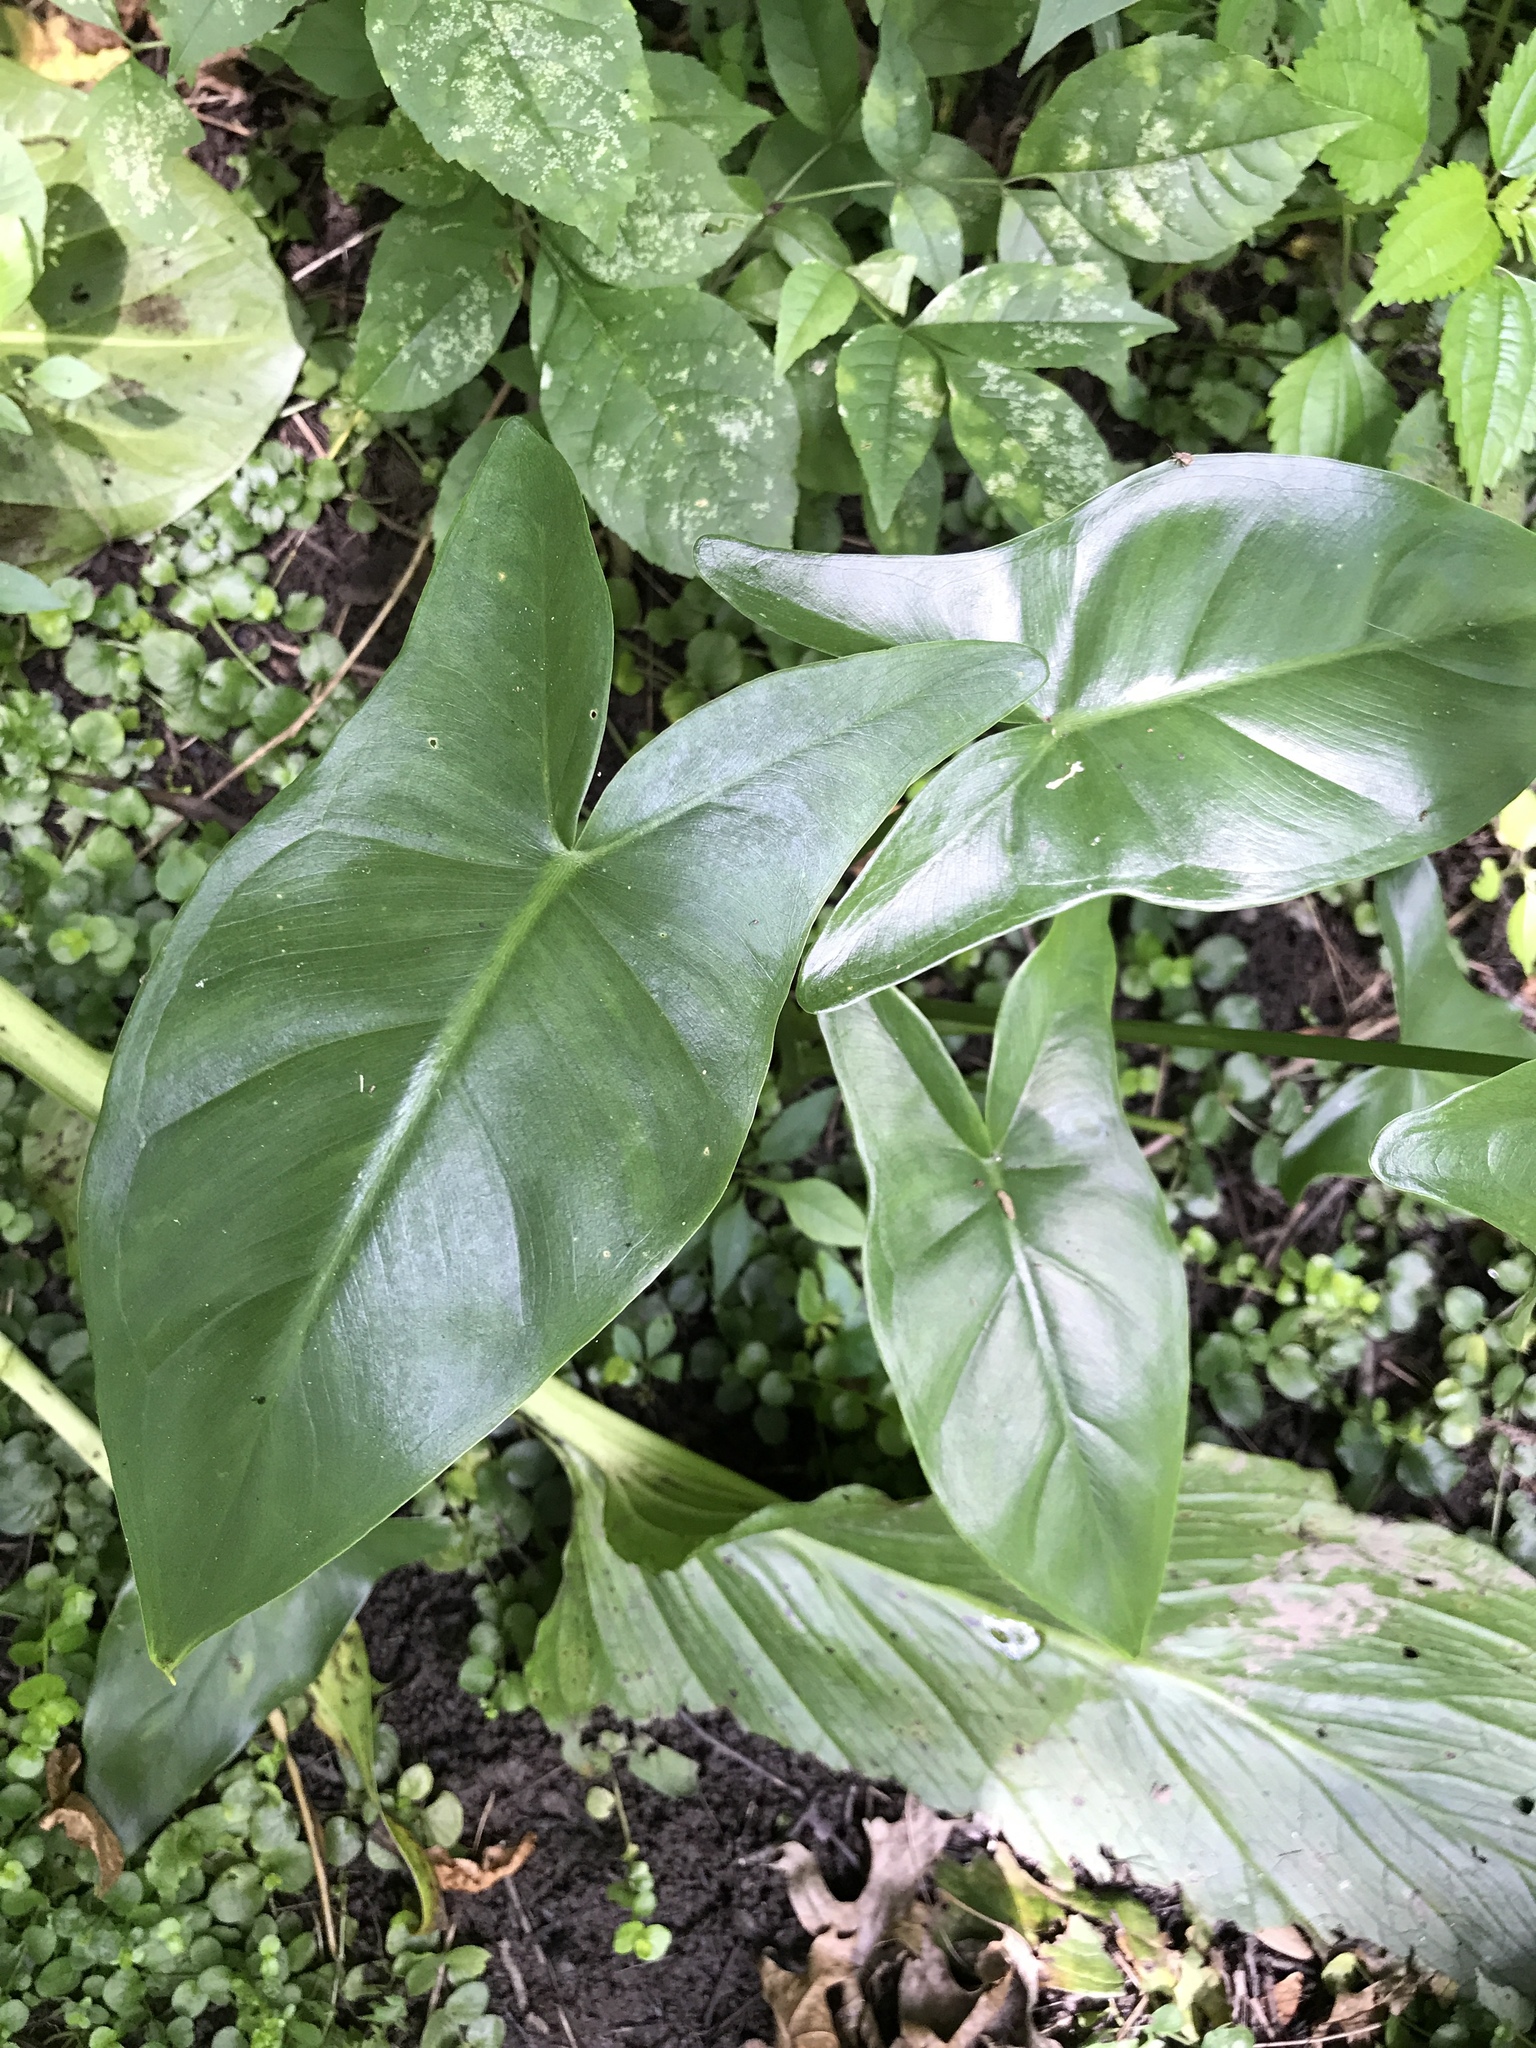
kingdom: Plantae
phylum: Tracheophyta
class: Liliopsida
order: Alismatales
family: Araceae
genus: Peltandra
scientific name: Peltandra virginica
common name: Arrow arum
